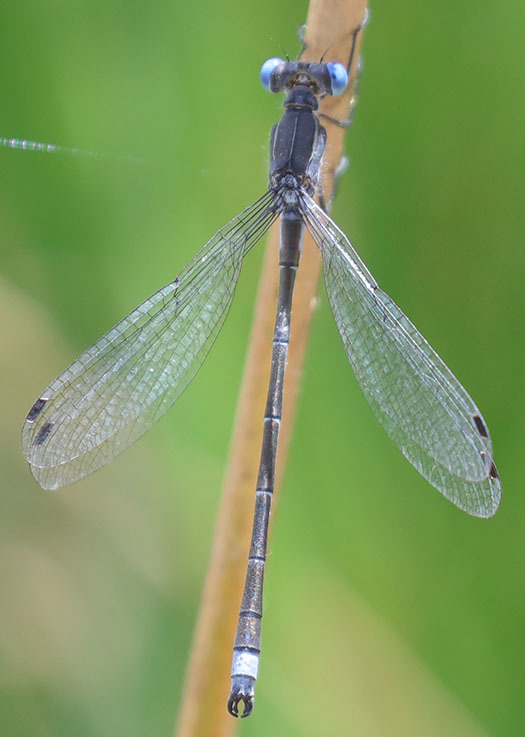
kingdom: Animalia
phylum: Arthropoda
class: Insecta
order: Odonata
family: Lestidae
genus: Lestes
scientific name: Lestes stultus
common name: Black spreadwing
